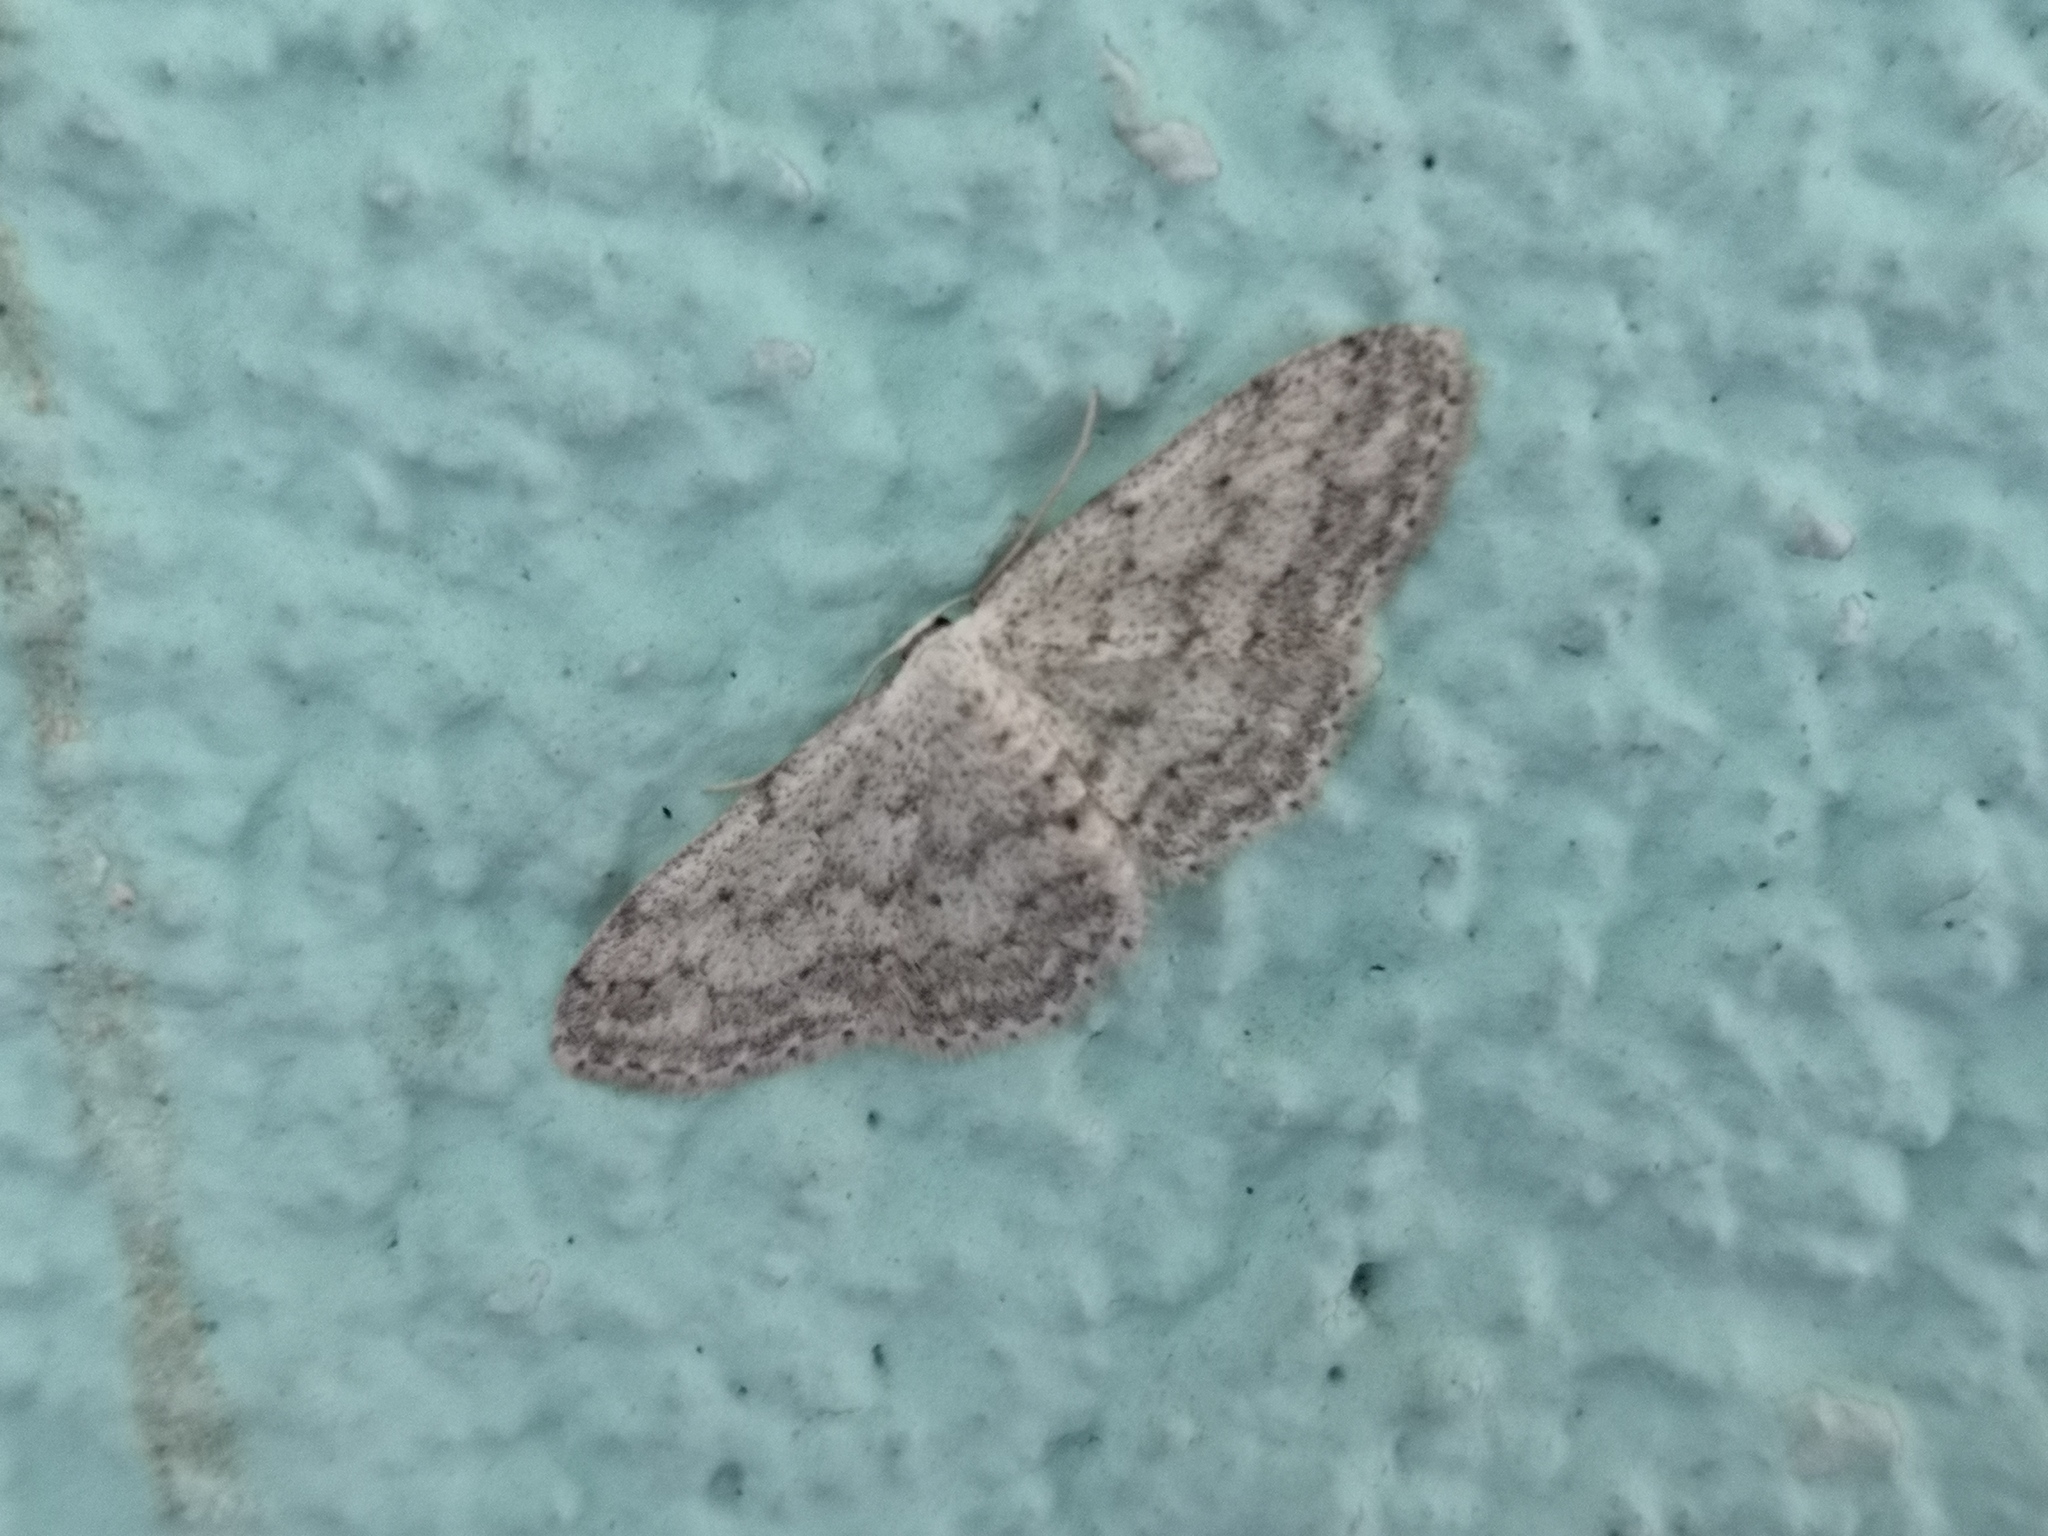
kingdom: Animalia
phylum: Arthropoda
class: Insecta
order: Lepidoptera
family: Geometridae
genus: Idaea
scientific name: Idaea seriata
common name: Small dusty wave
